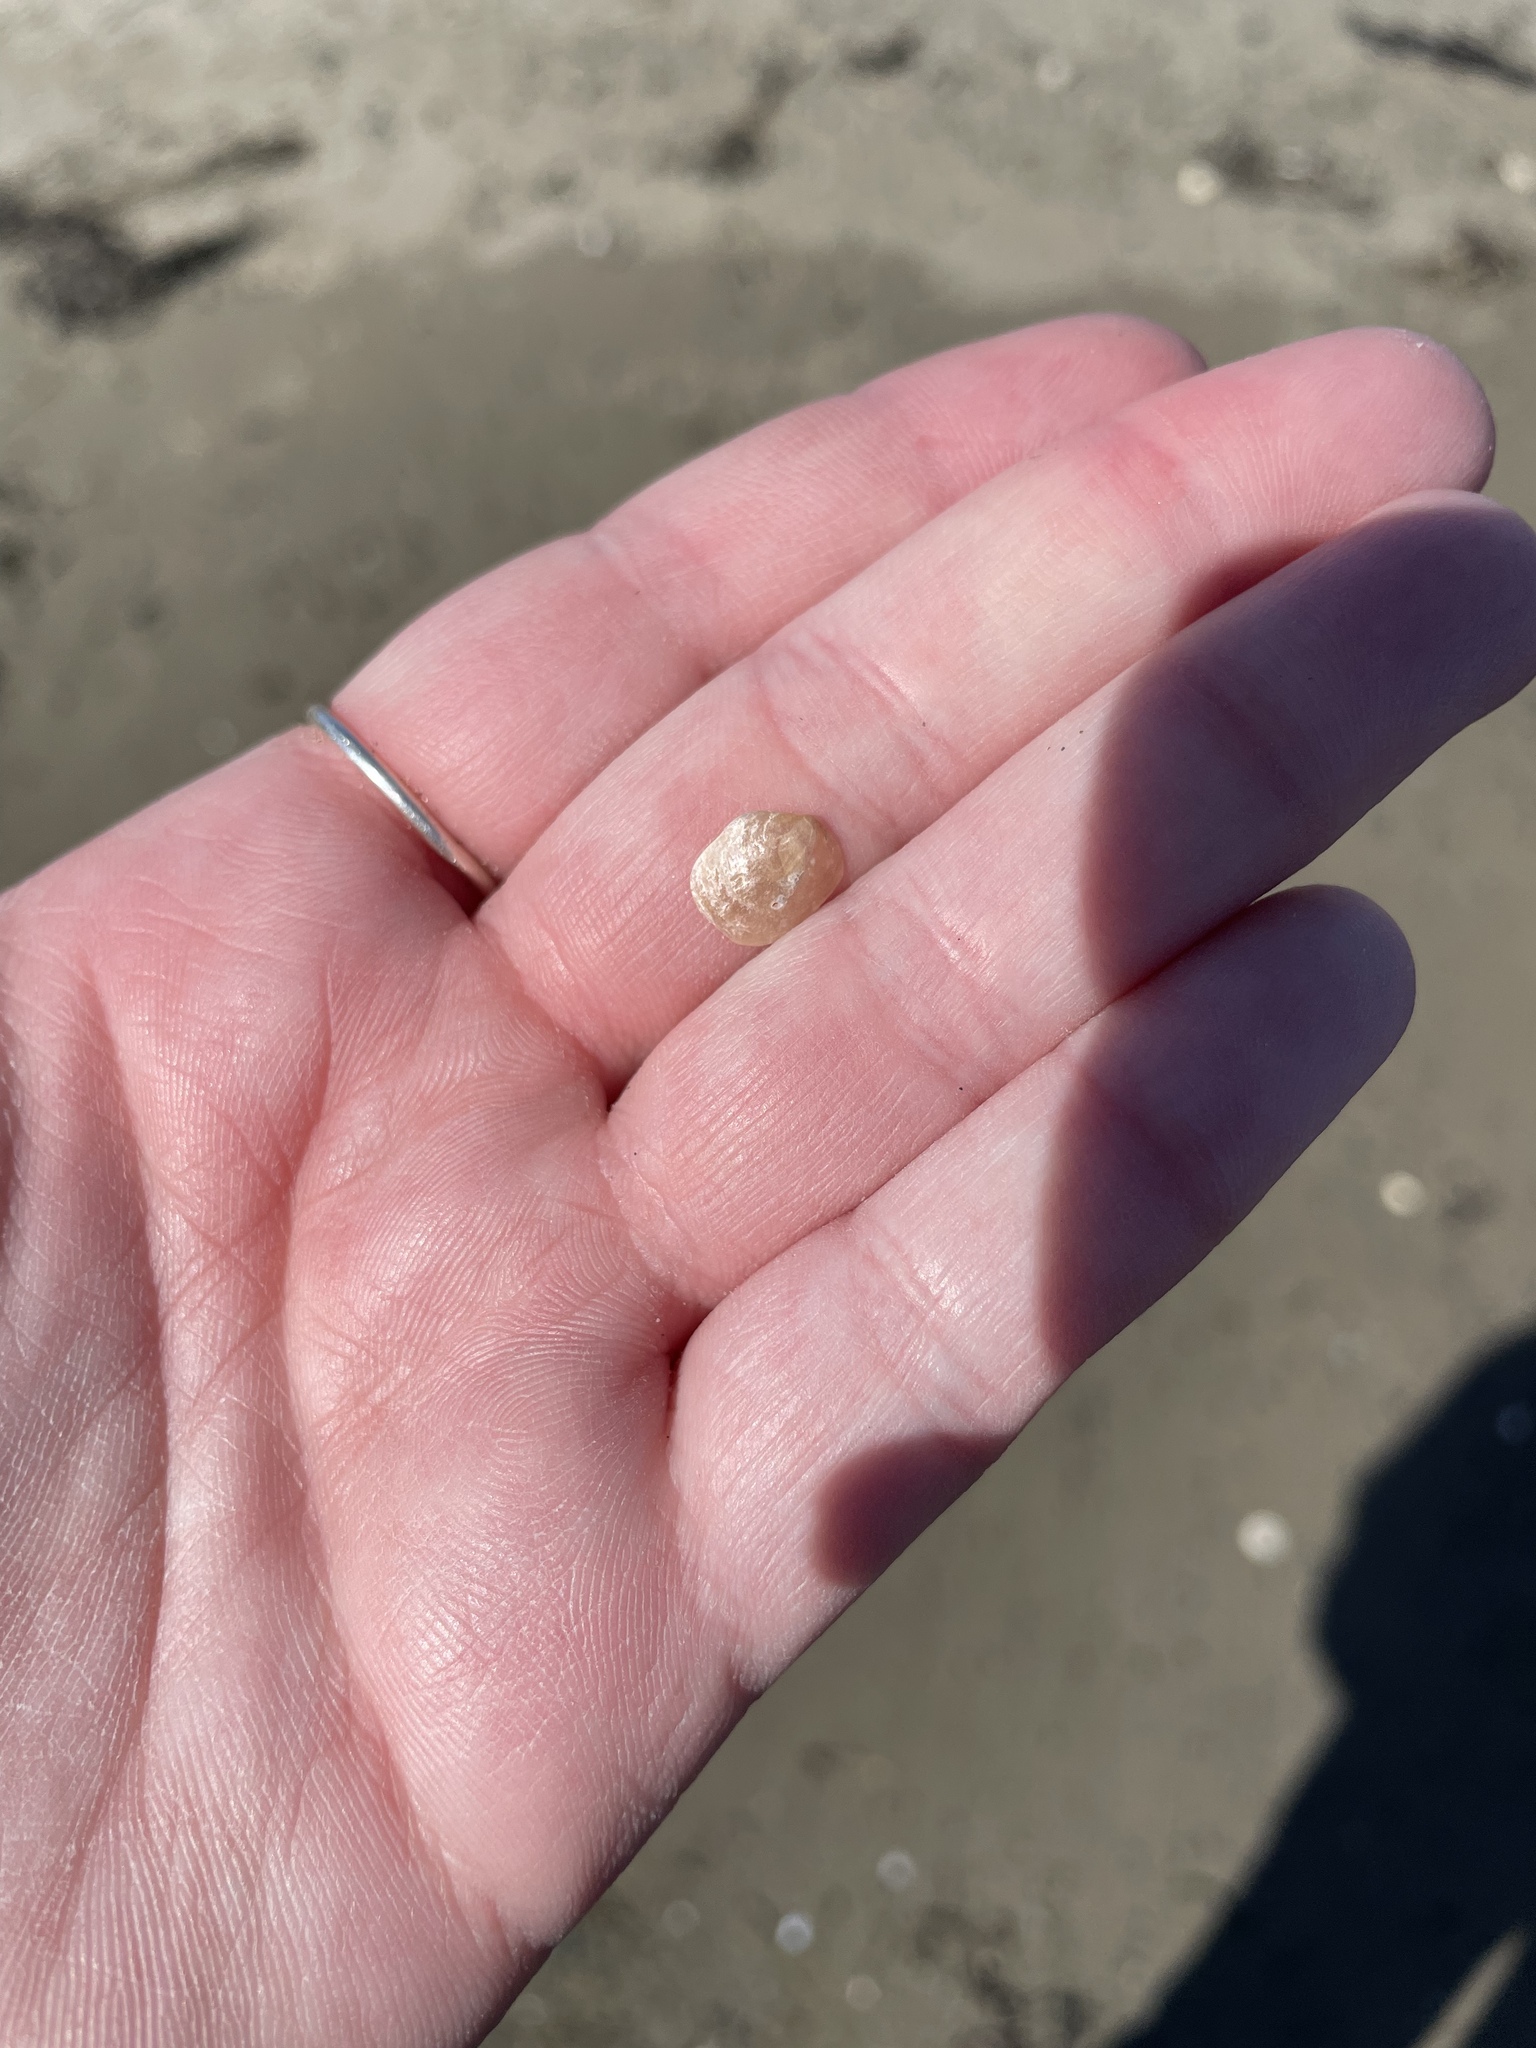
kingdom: Animalia
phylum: Mollusca
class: Bivalvia
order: Pectinida
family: Anomiidae
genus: Heteranomia
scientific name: Heteranomia squamula
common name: Prickly jingle
